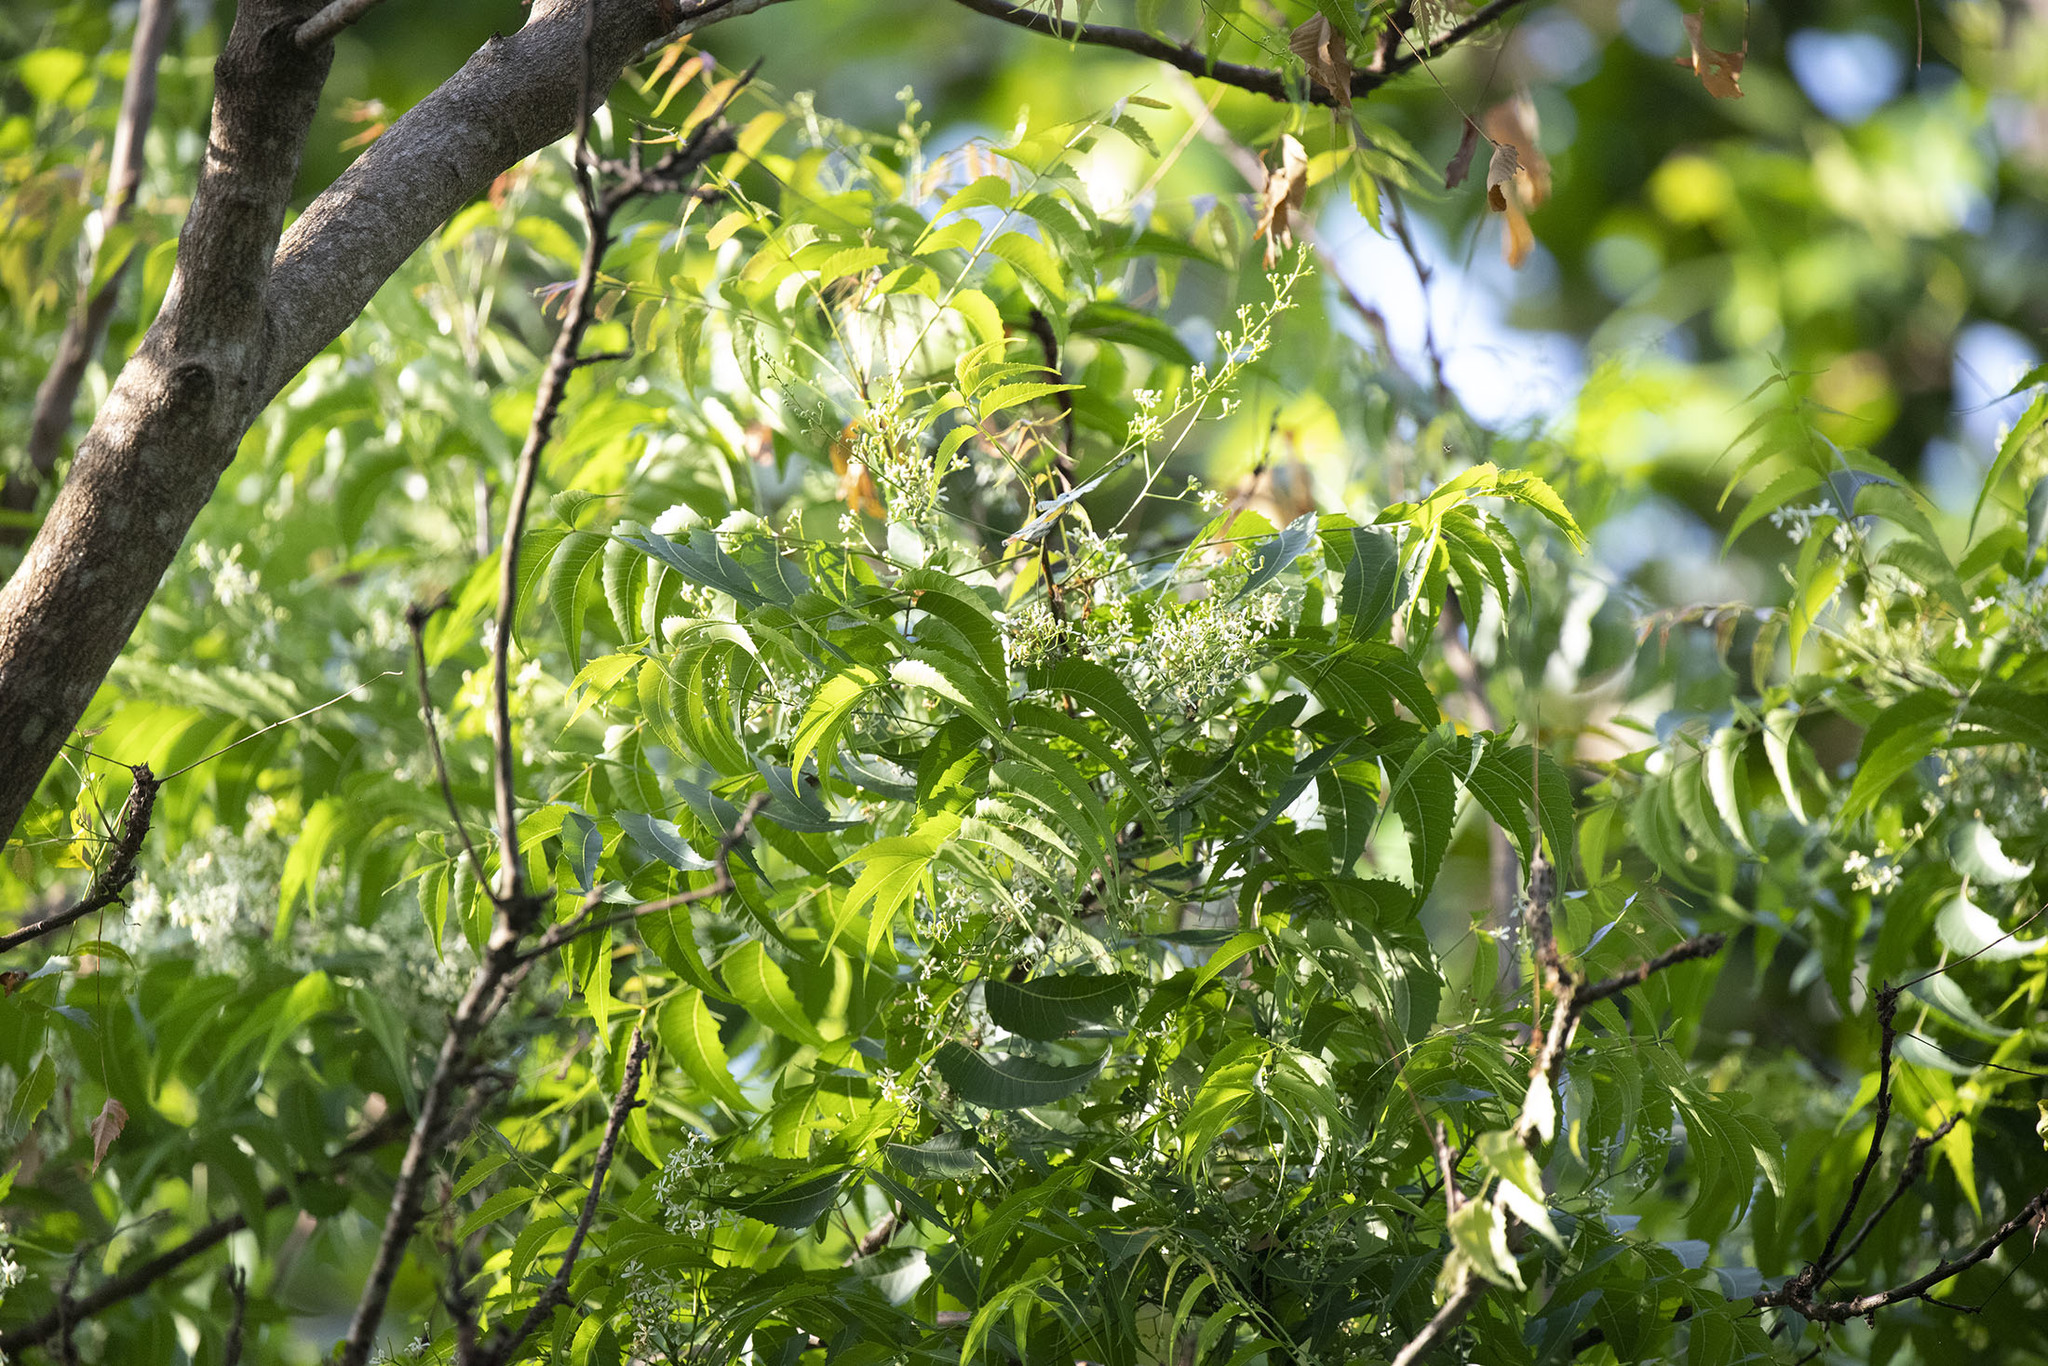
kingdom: Plantae
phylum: Tracheophyta
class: Magnoliopsida
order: Sapindales
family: Meliaceae
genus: Azadirachta
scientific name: Azadirachta indica
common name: Neem
